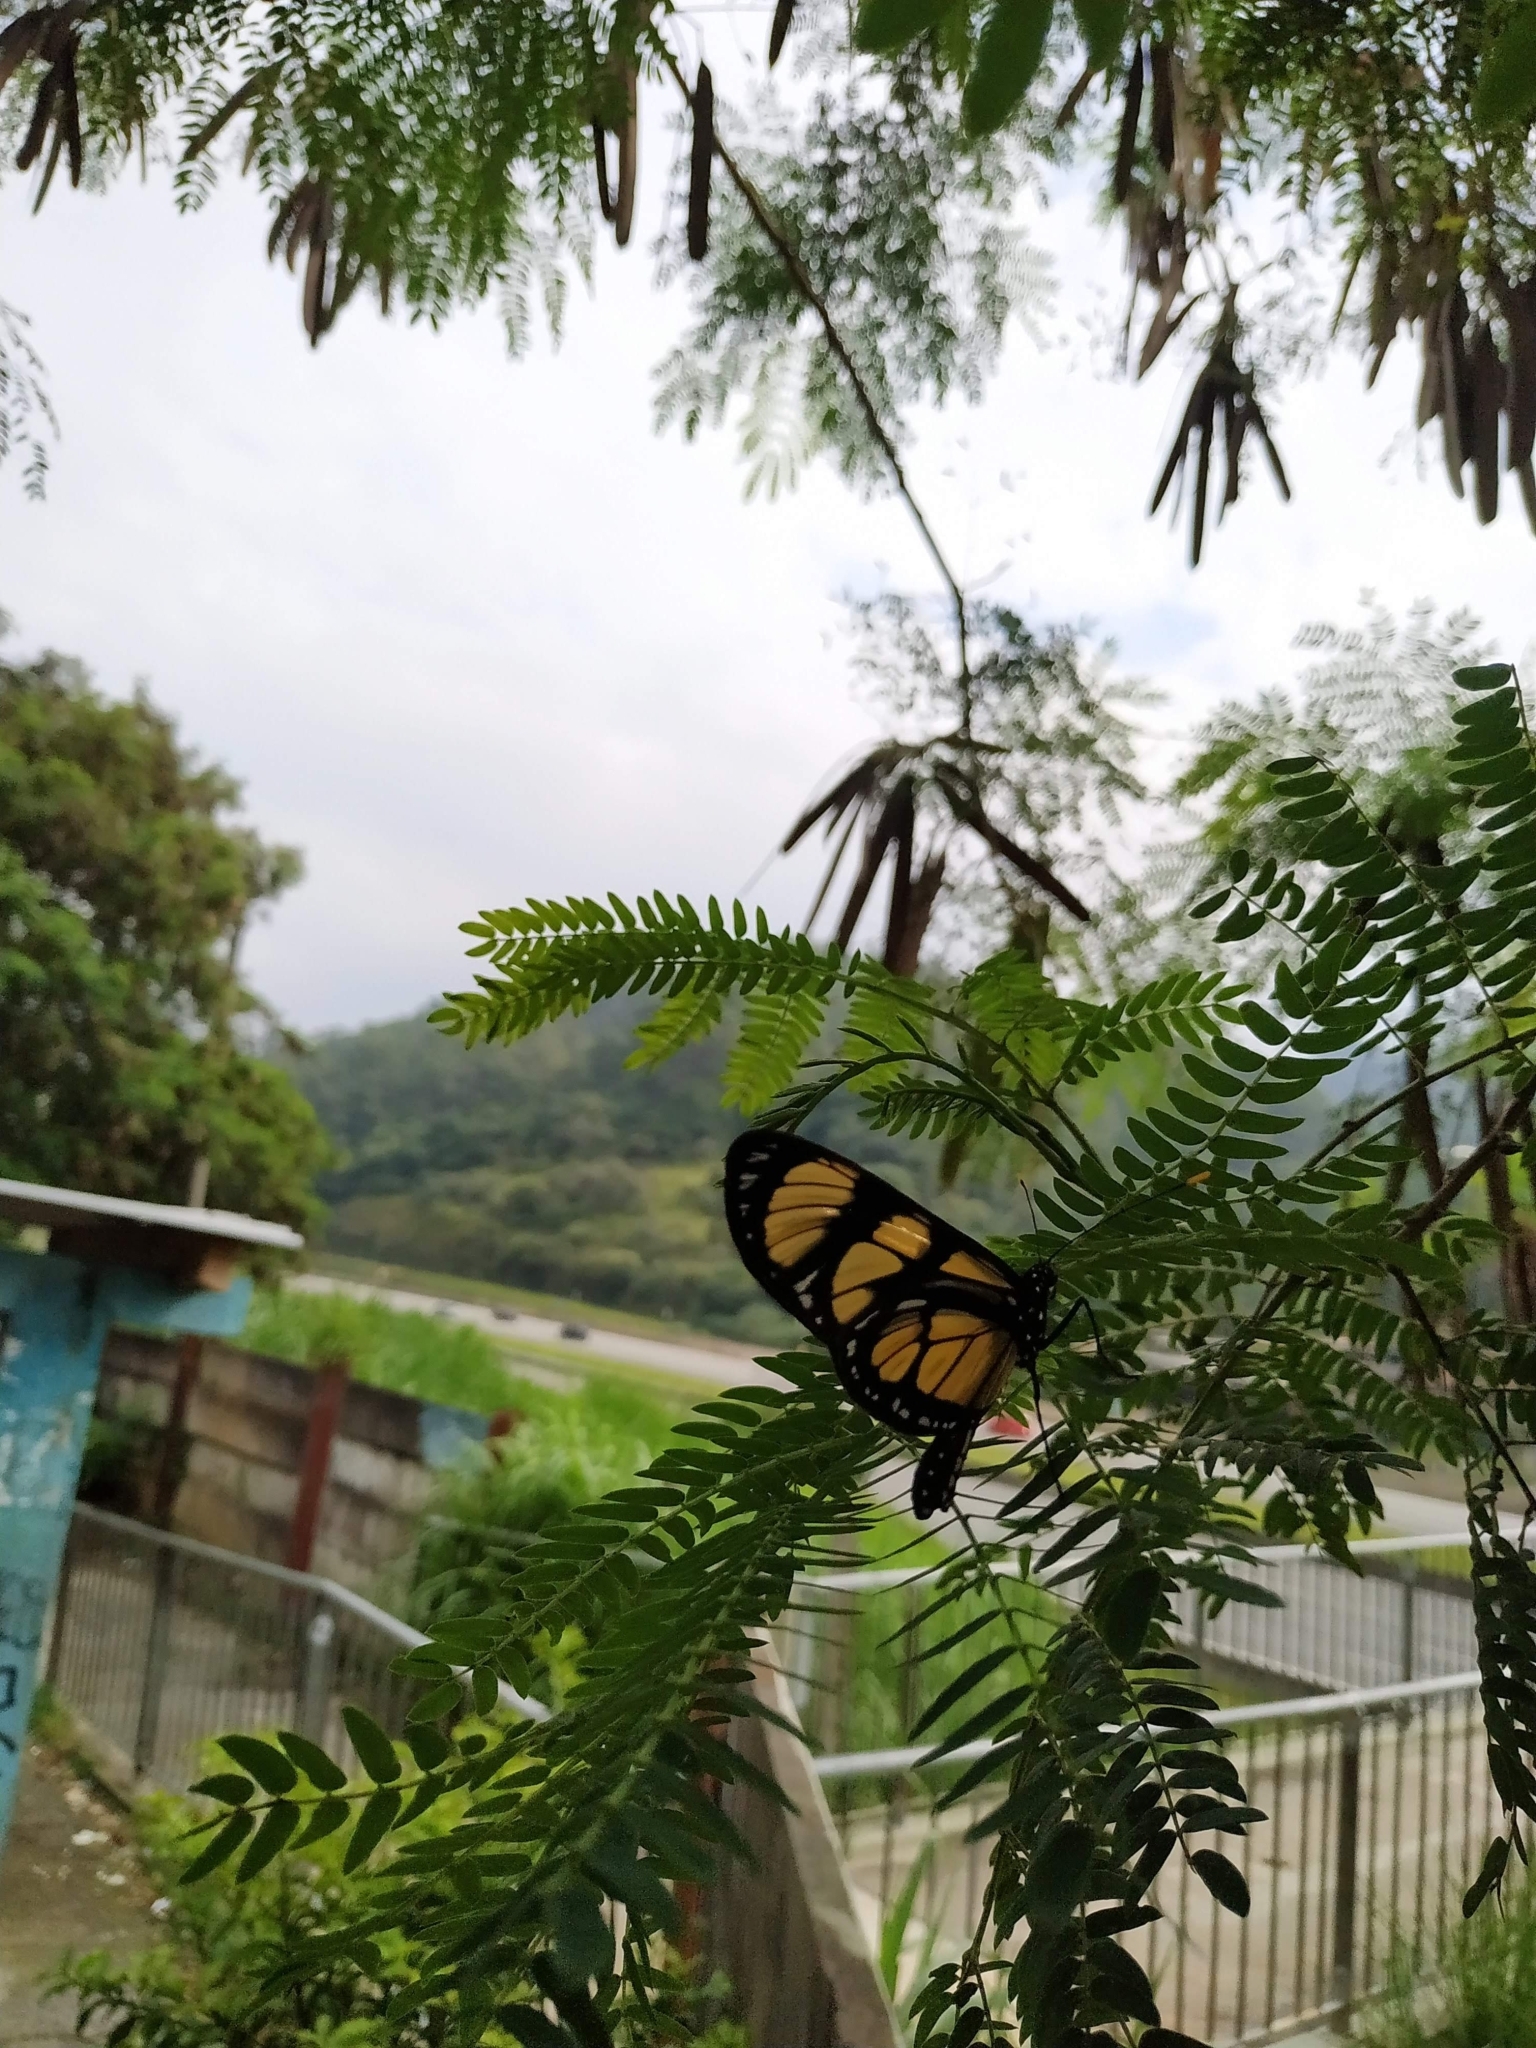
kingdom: Animalia
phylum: Arthropoda
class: Insecta
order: Lepidoptera
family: Nymphalidae
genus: Methona
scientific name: Methona themisto
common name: Themisto amberwing
